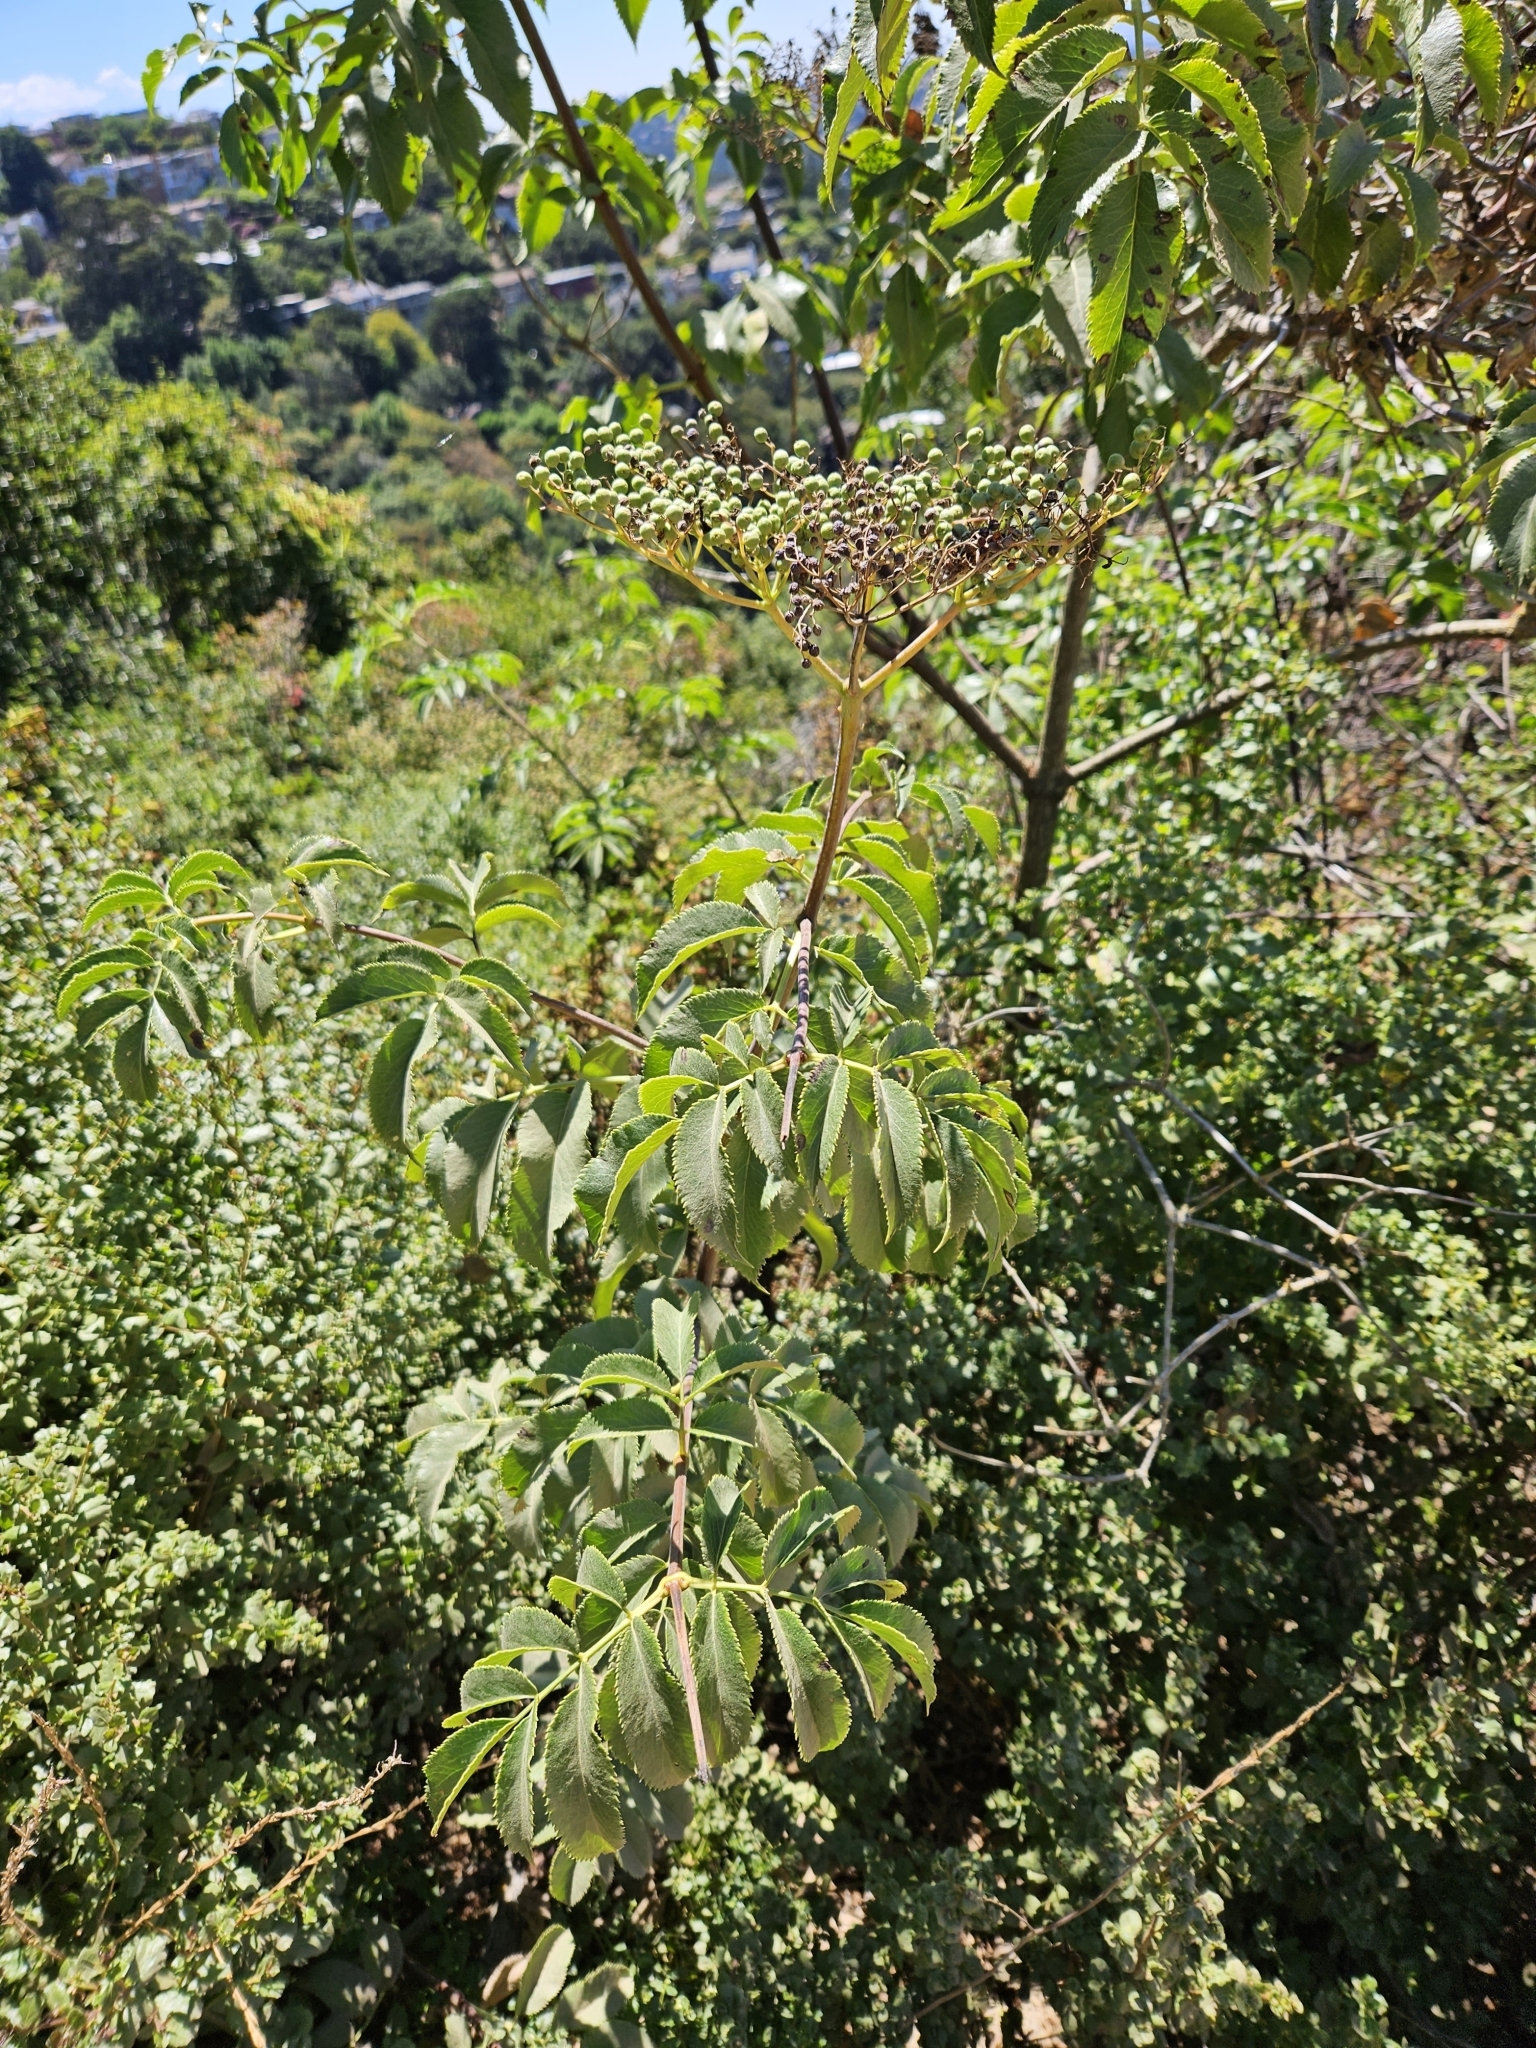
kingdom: Plantae
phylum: Tracheophyta
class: Magnoliopsida
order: Dipsacales
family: Viburnaceae
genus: Sambucus
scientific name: Sambucus cerulea
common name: Blue elder
